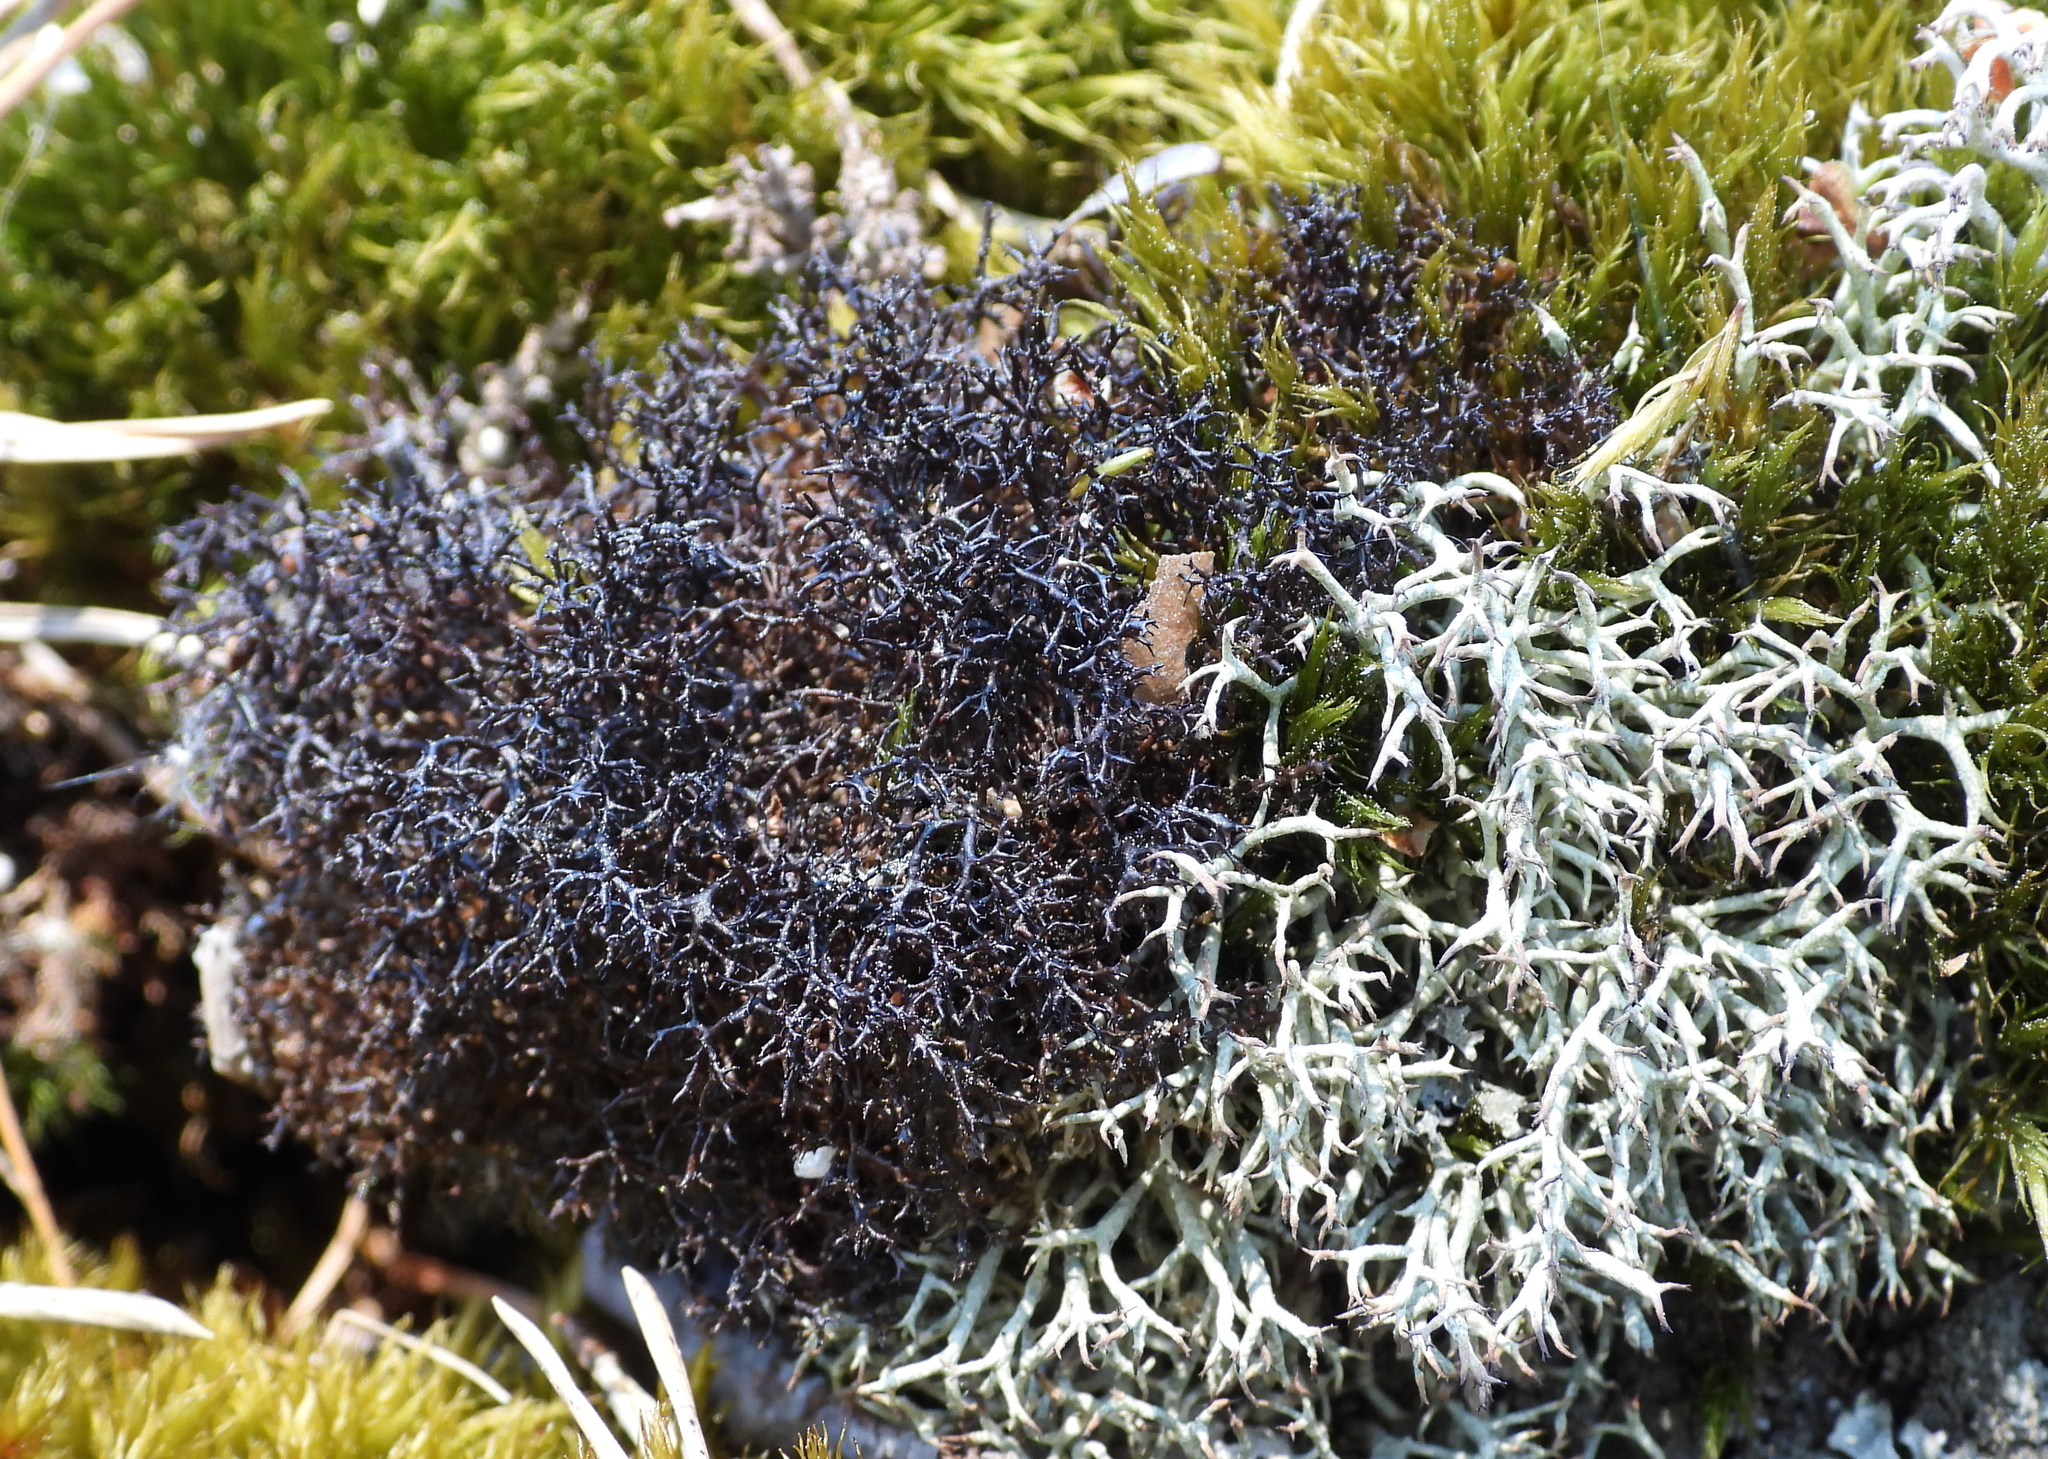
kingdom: Fungi
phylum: Ascomycota
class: Lecanoromycetes
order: Lecanorales
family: Parmeliaceae
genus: Cetraria
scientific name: Cetraria muricata
